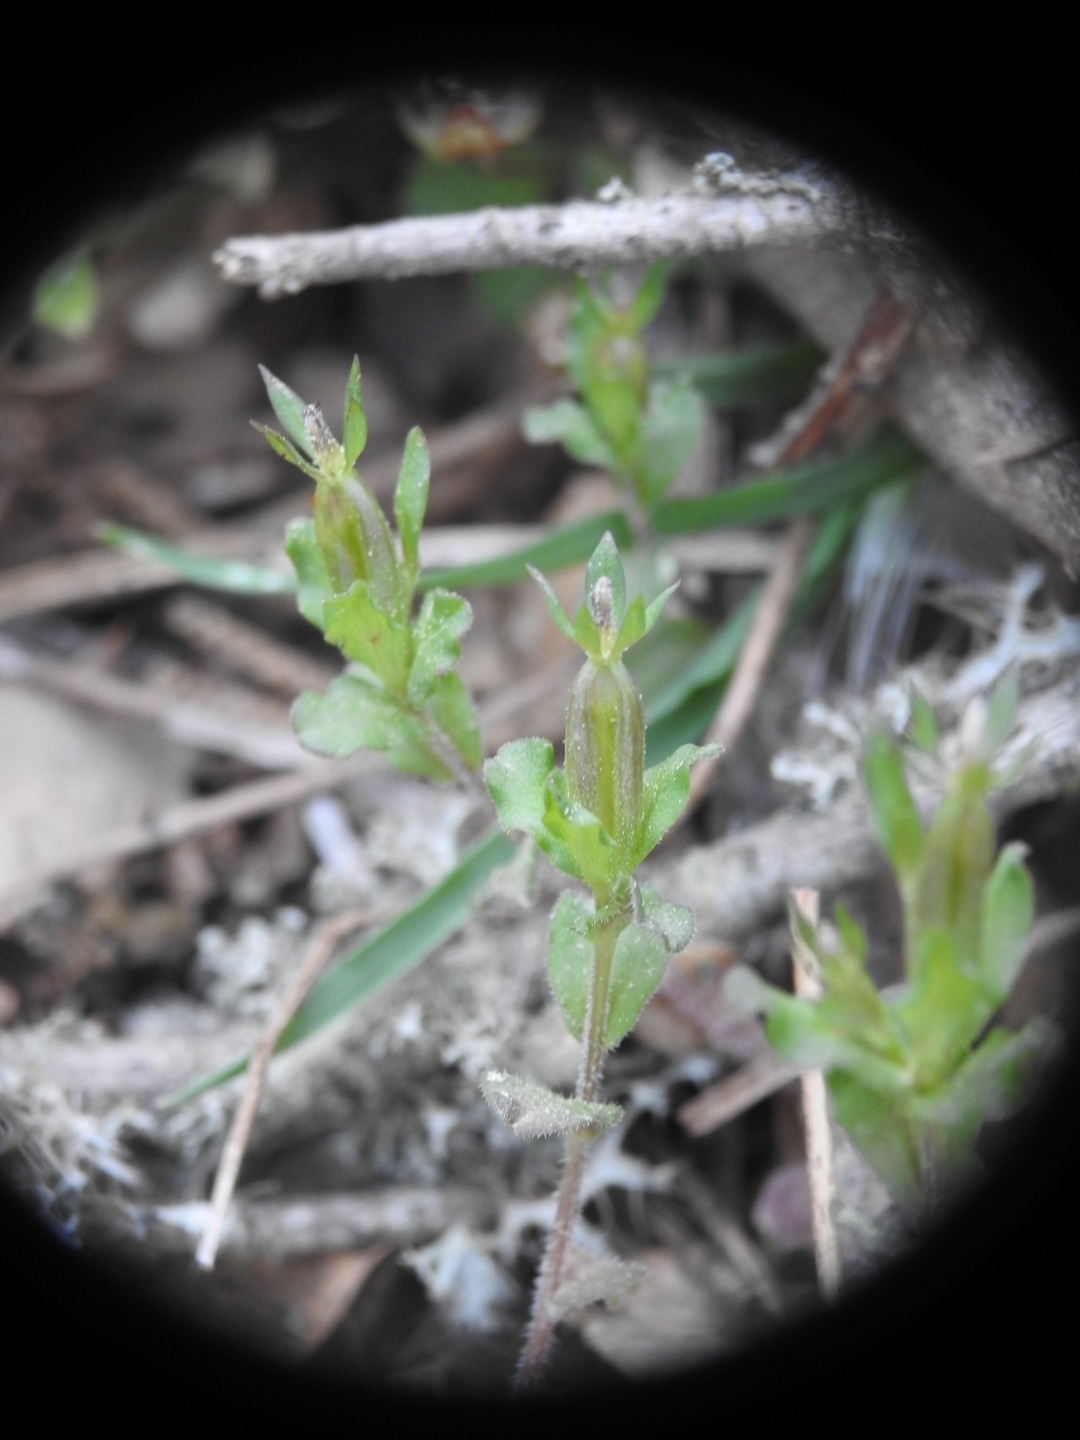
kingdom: Plantae
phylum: Tracheophyta
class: Magnoliopsida
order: Asterales
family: Campanulaceae
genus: Legousia
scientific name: Legousia hybrida
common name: Venus's-looking-glass
